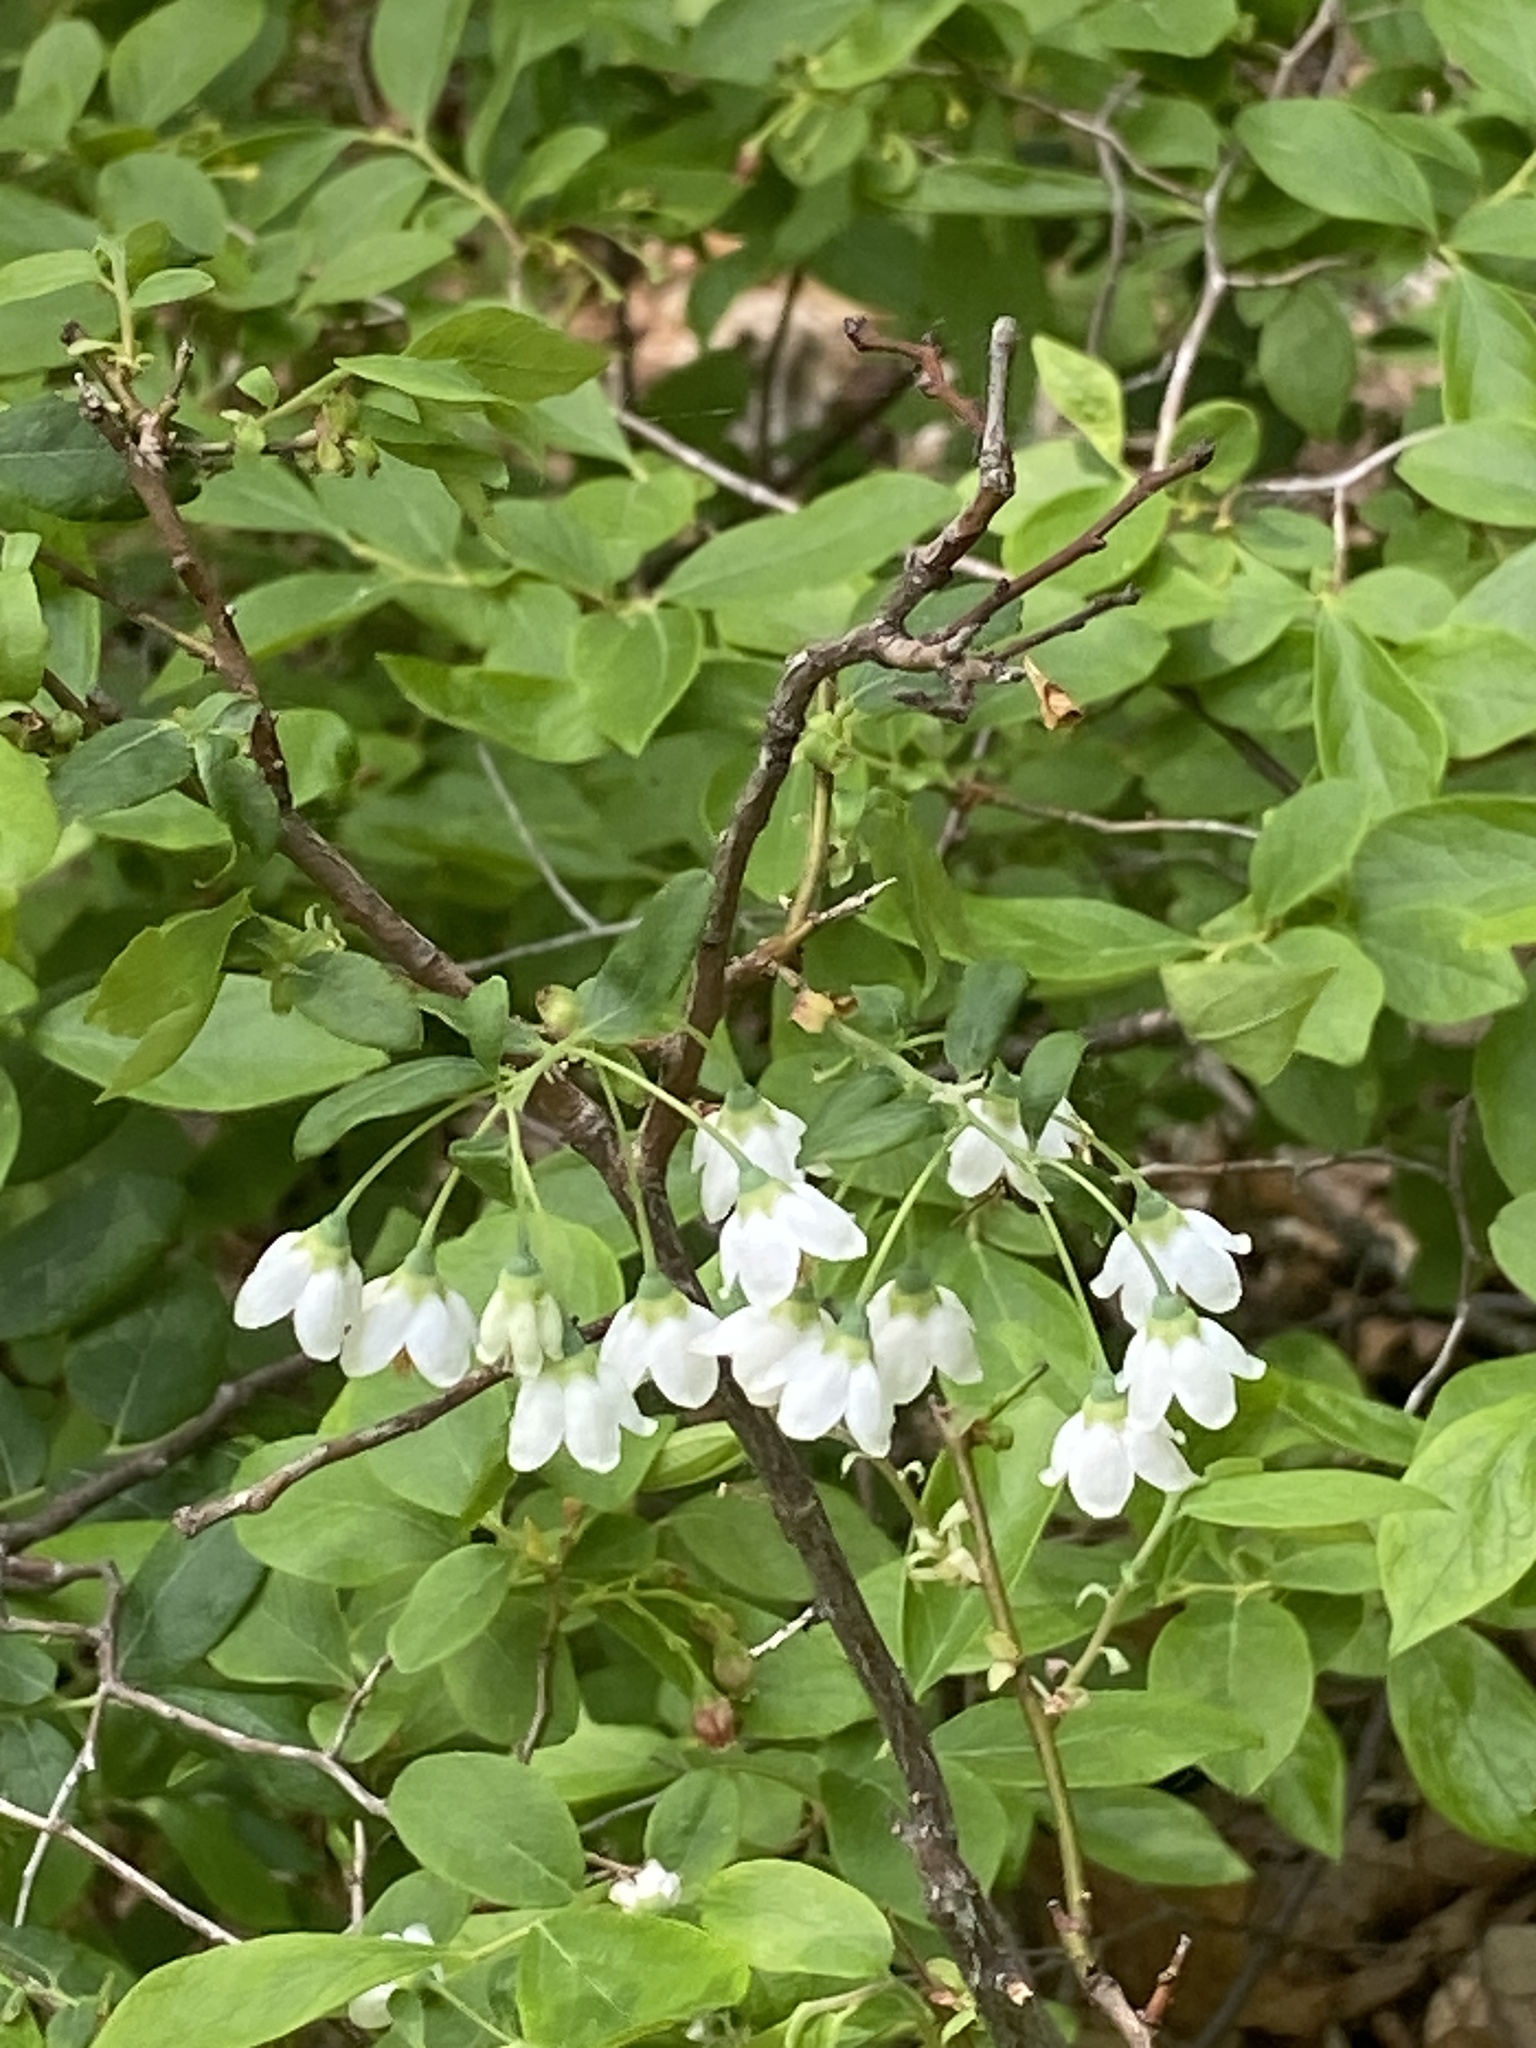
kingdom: Plantae
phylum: Tracheophyta
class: Magnoliopsida
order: Ericales
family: Ericaceae
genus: Vaccinium
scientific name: Vaccinium stamineum
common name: Deerberry
